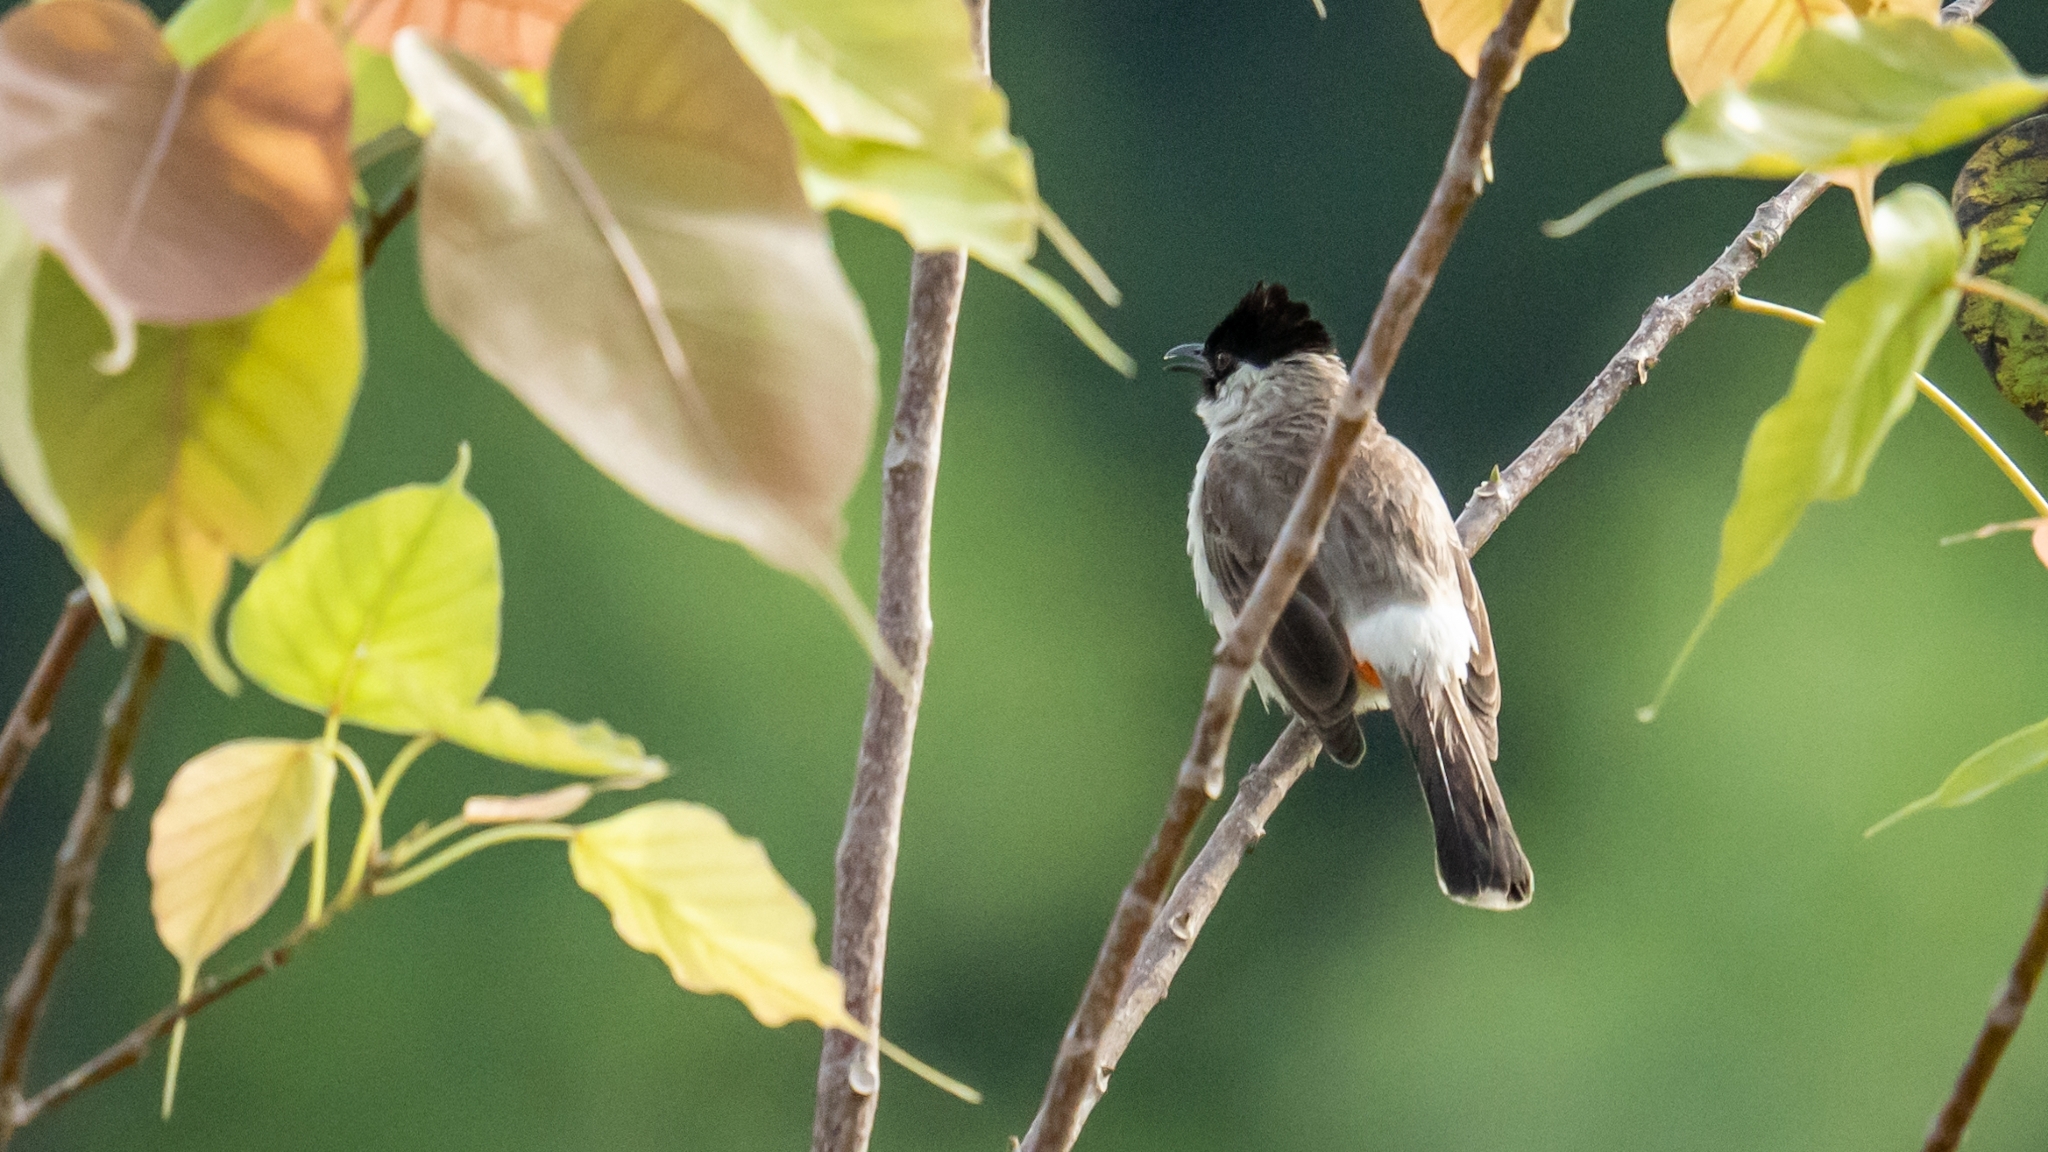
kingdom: Animalia
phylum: Chordata
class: Aves
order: Passeriformes
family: Pycnonotidae
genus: Pycnonotus
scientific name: Pycnonotus aurigaster
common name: Sooty-headed bulbul
